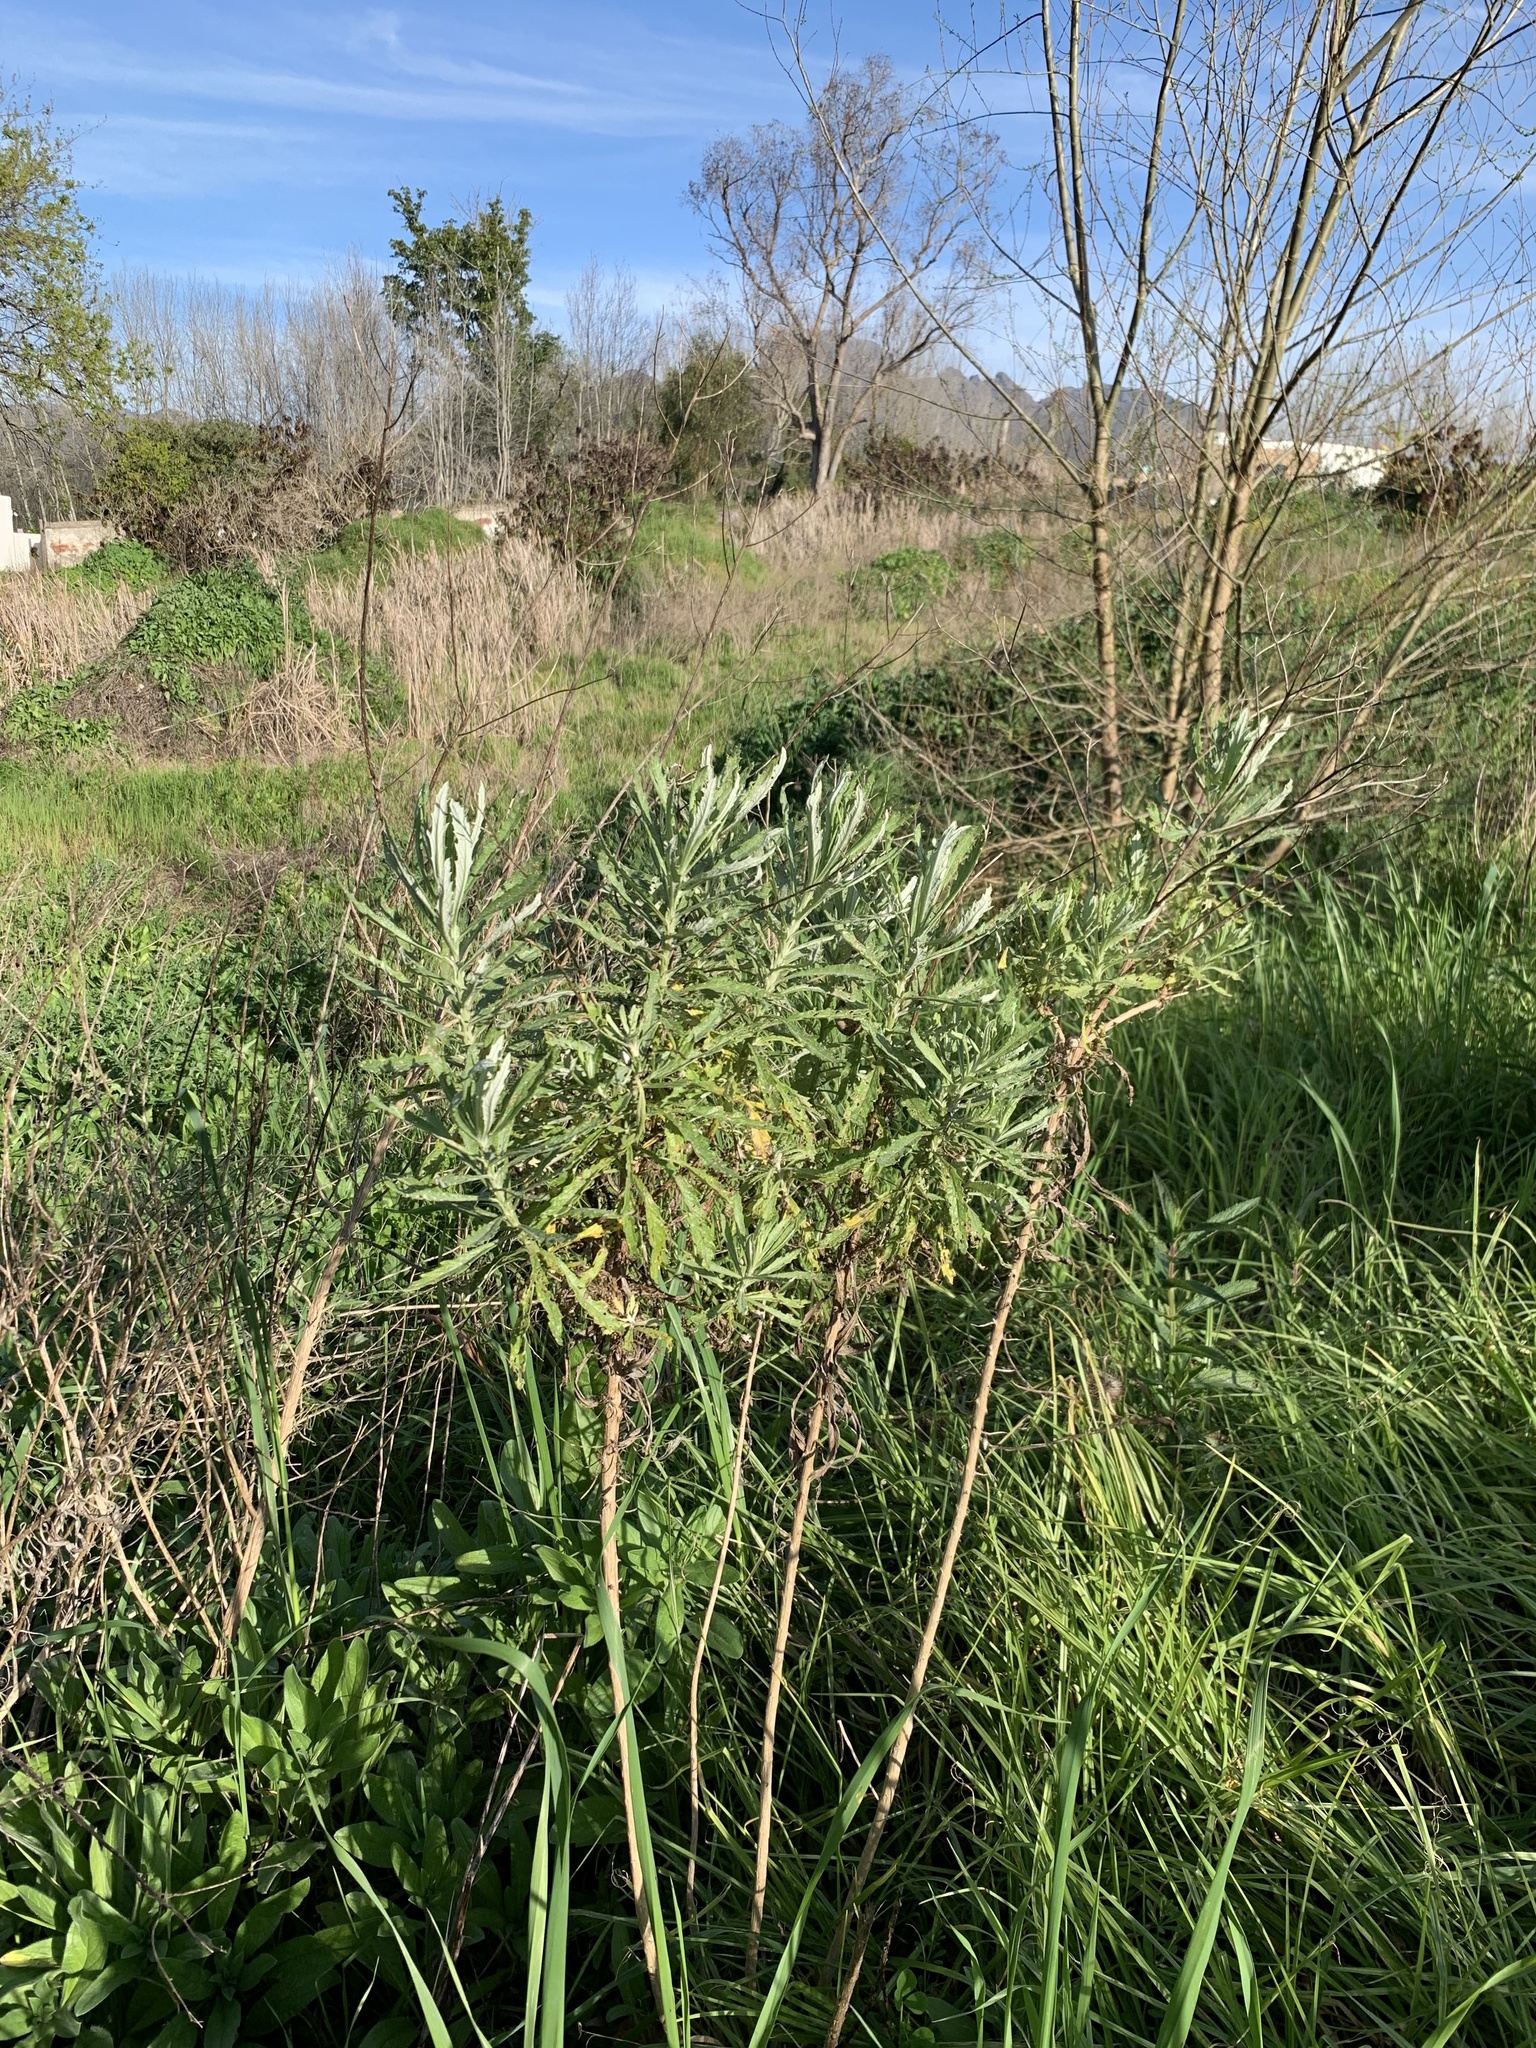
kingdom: Plantae
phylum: Tracheophyta
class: Magnoliopsida
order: Asterales
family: Asteraceae
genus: Senecio
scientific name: Senecio pterophorus
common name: Shoddy ragwort
